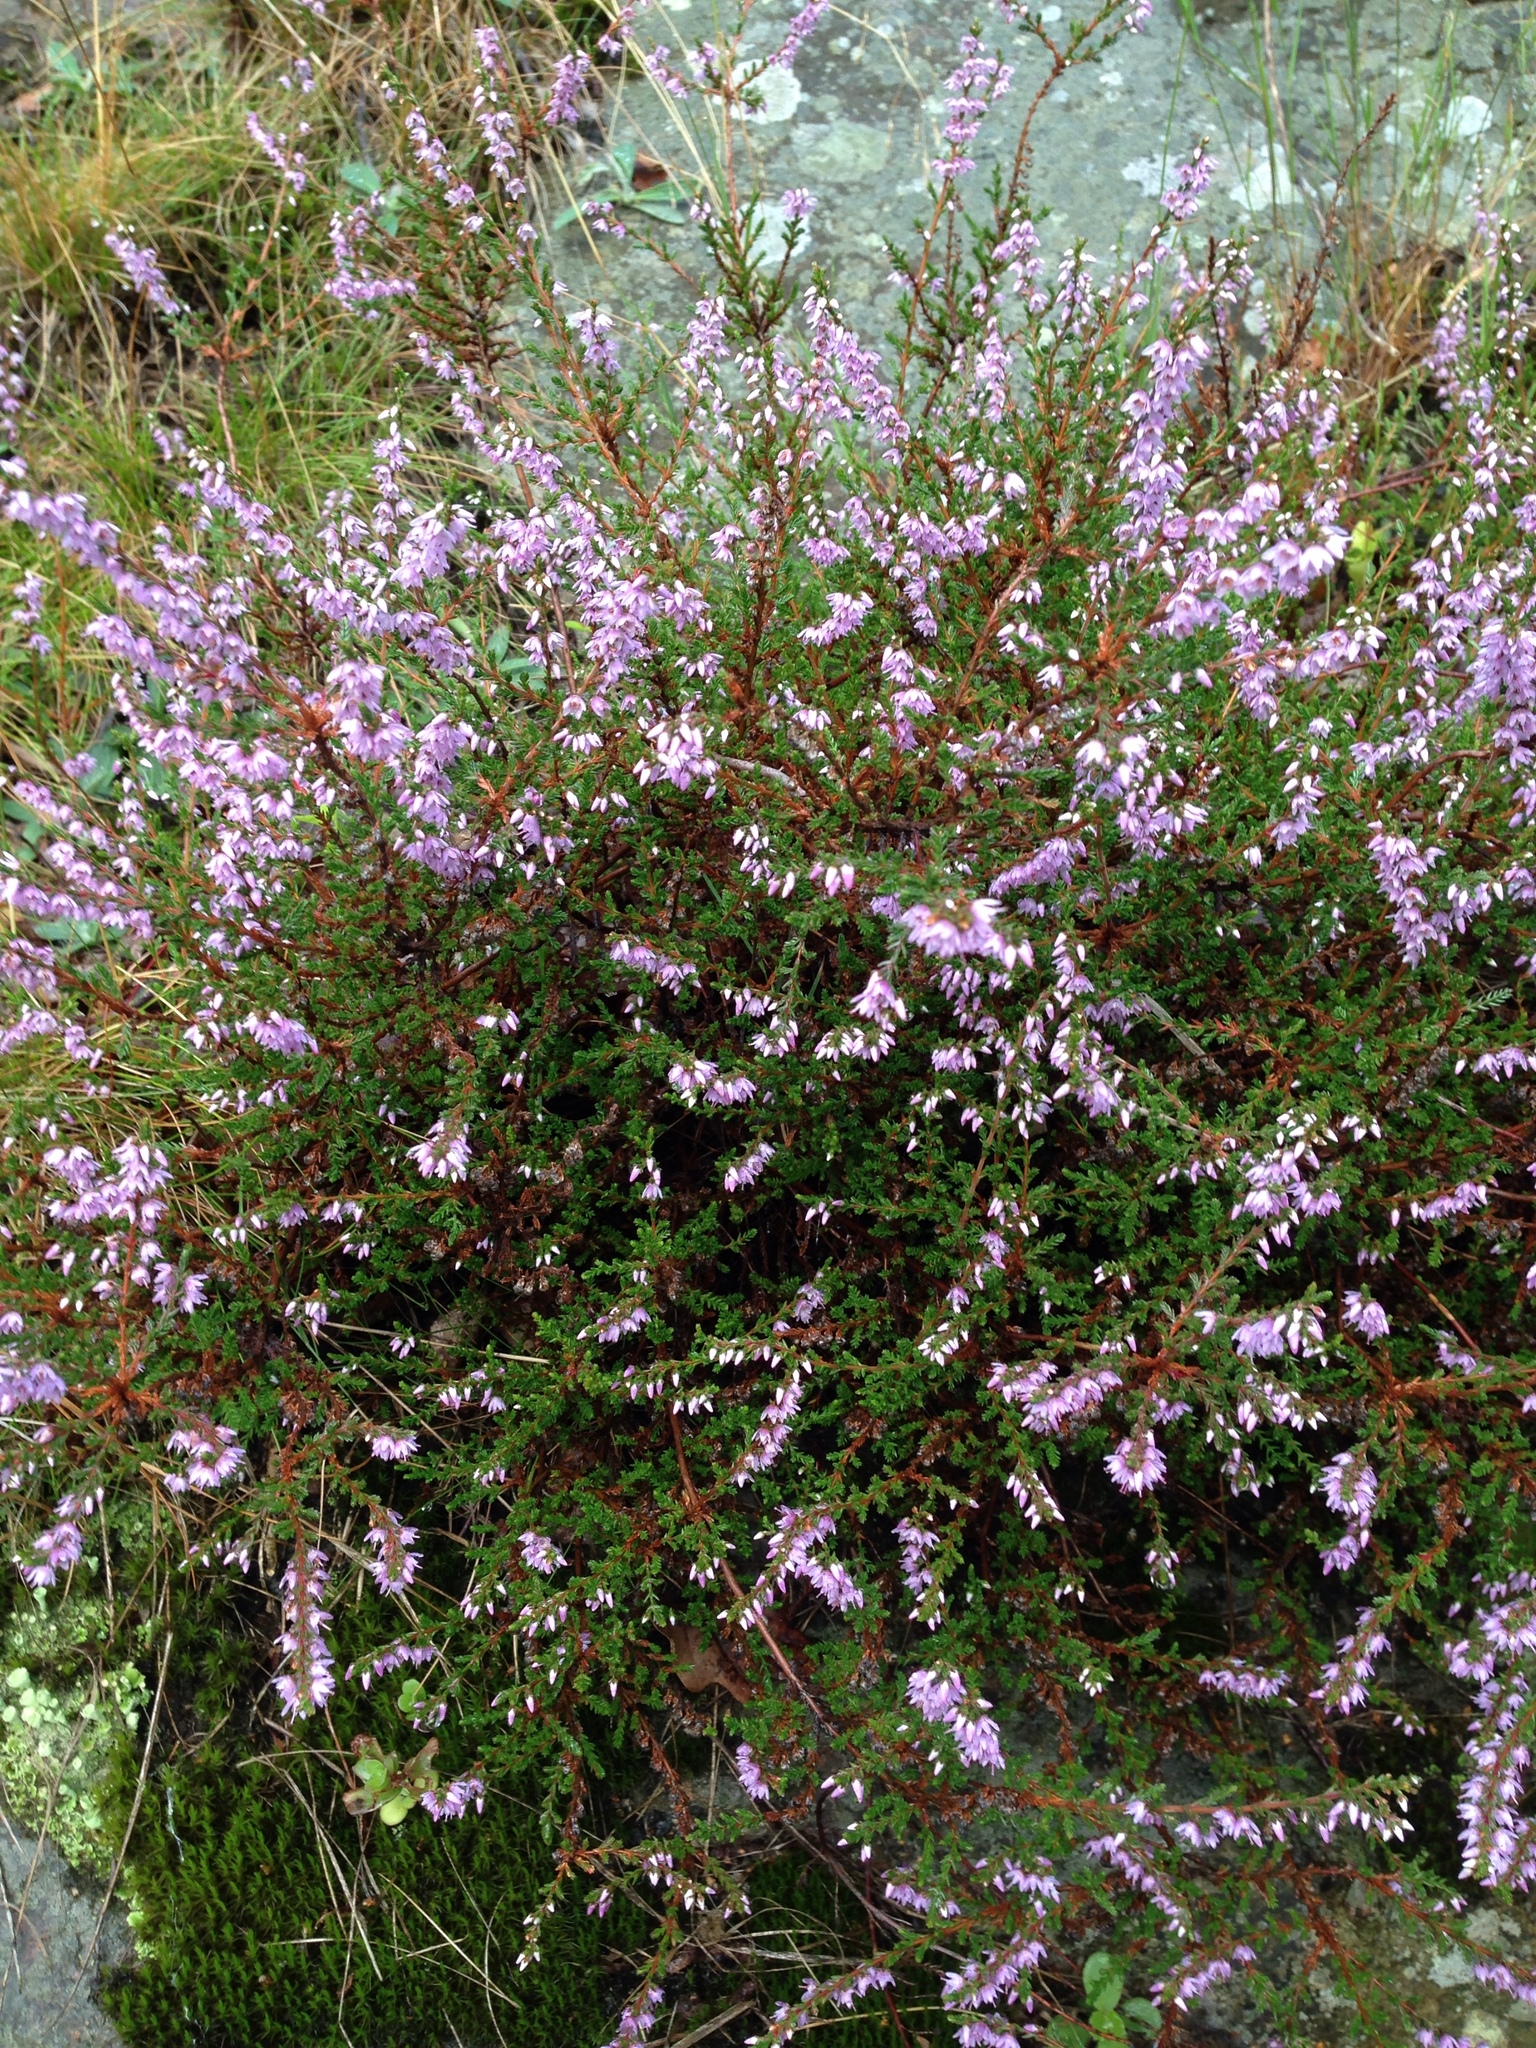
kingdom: Plantae
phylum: Tracheophyta
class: Magnoliopsida
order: Ericales
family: Ericaceae
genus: Calluna
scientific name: Calluna vulgaris
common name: Heather
